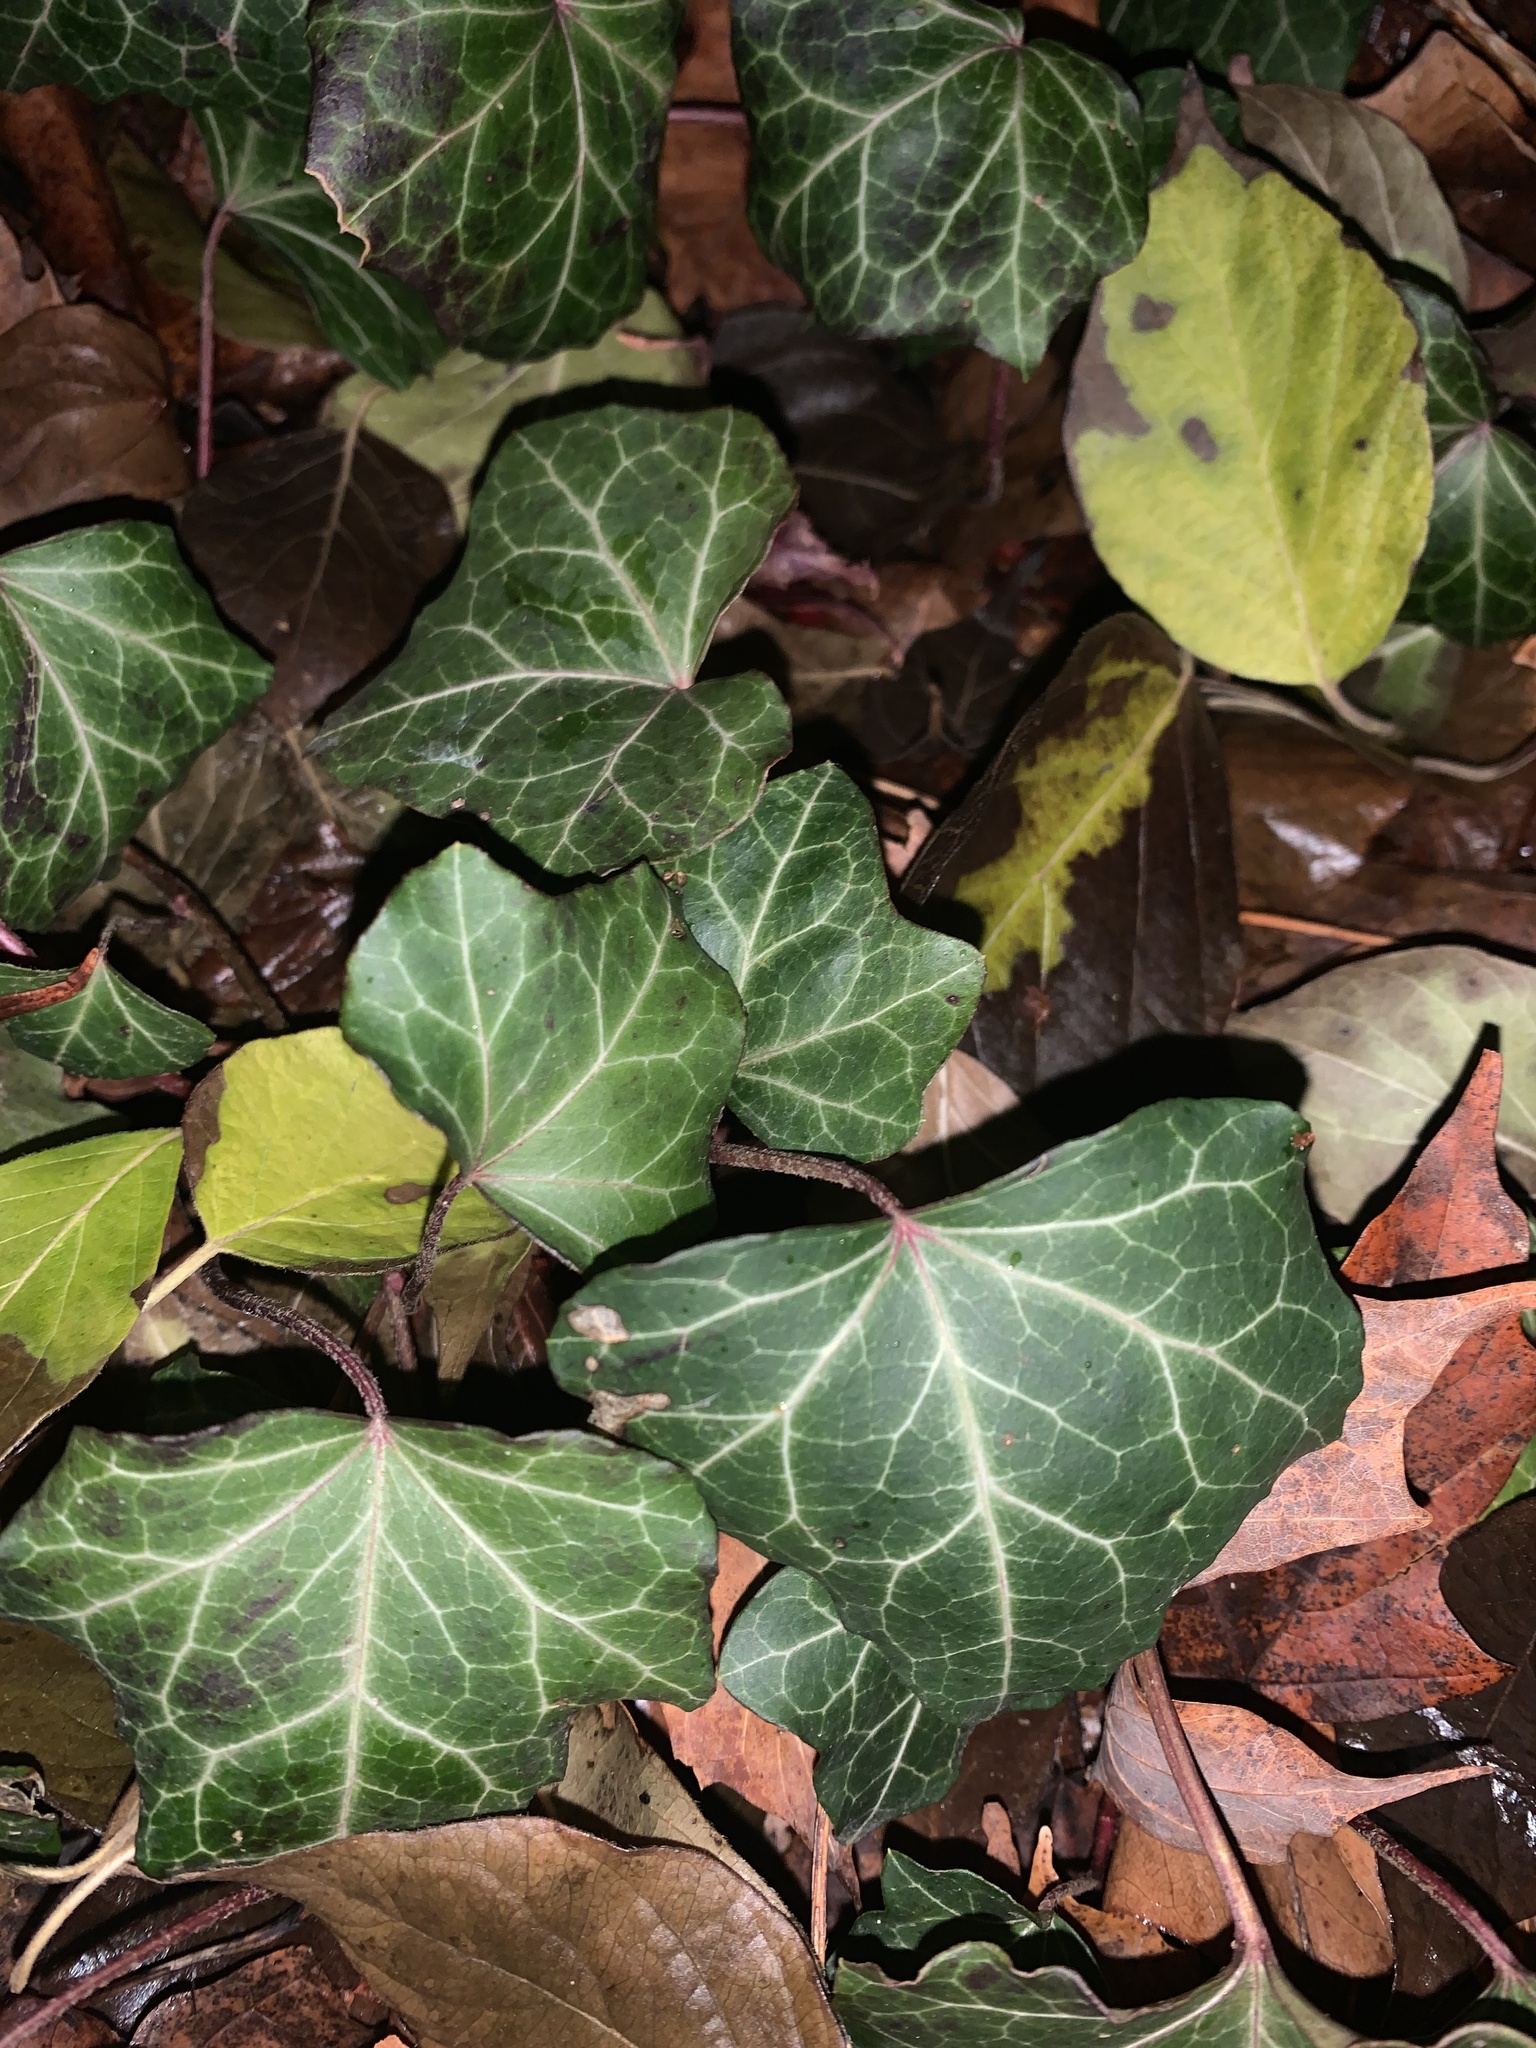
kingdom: Plantae
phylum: Tracheophyta
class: Magnoliopsida
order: Apiales
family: Araliaceae
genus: Hedera
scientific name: Hedera helix
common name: Ivy
